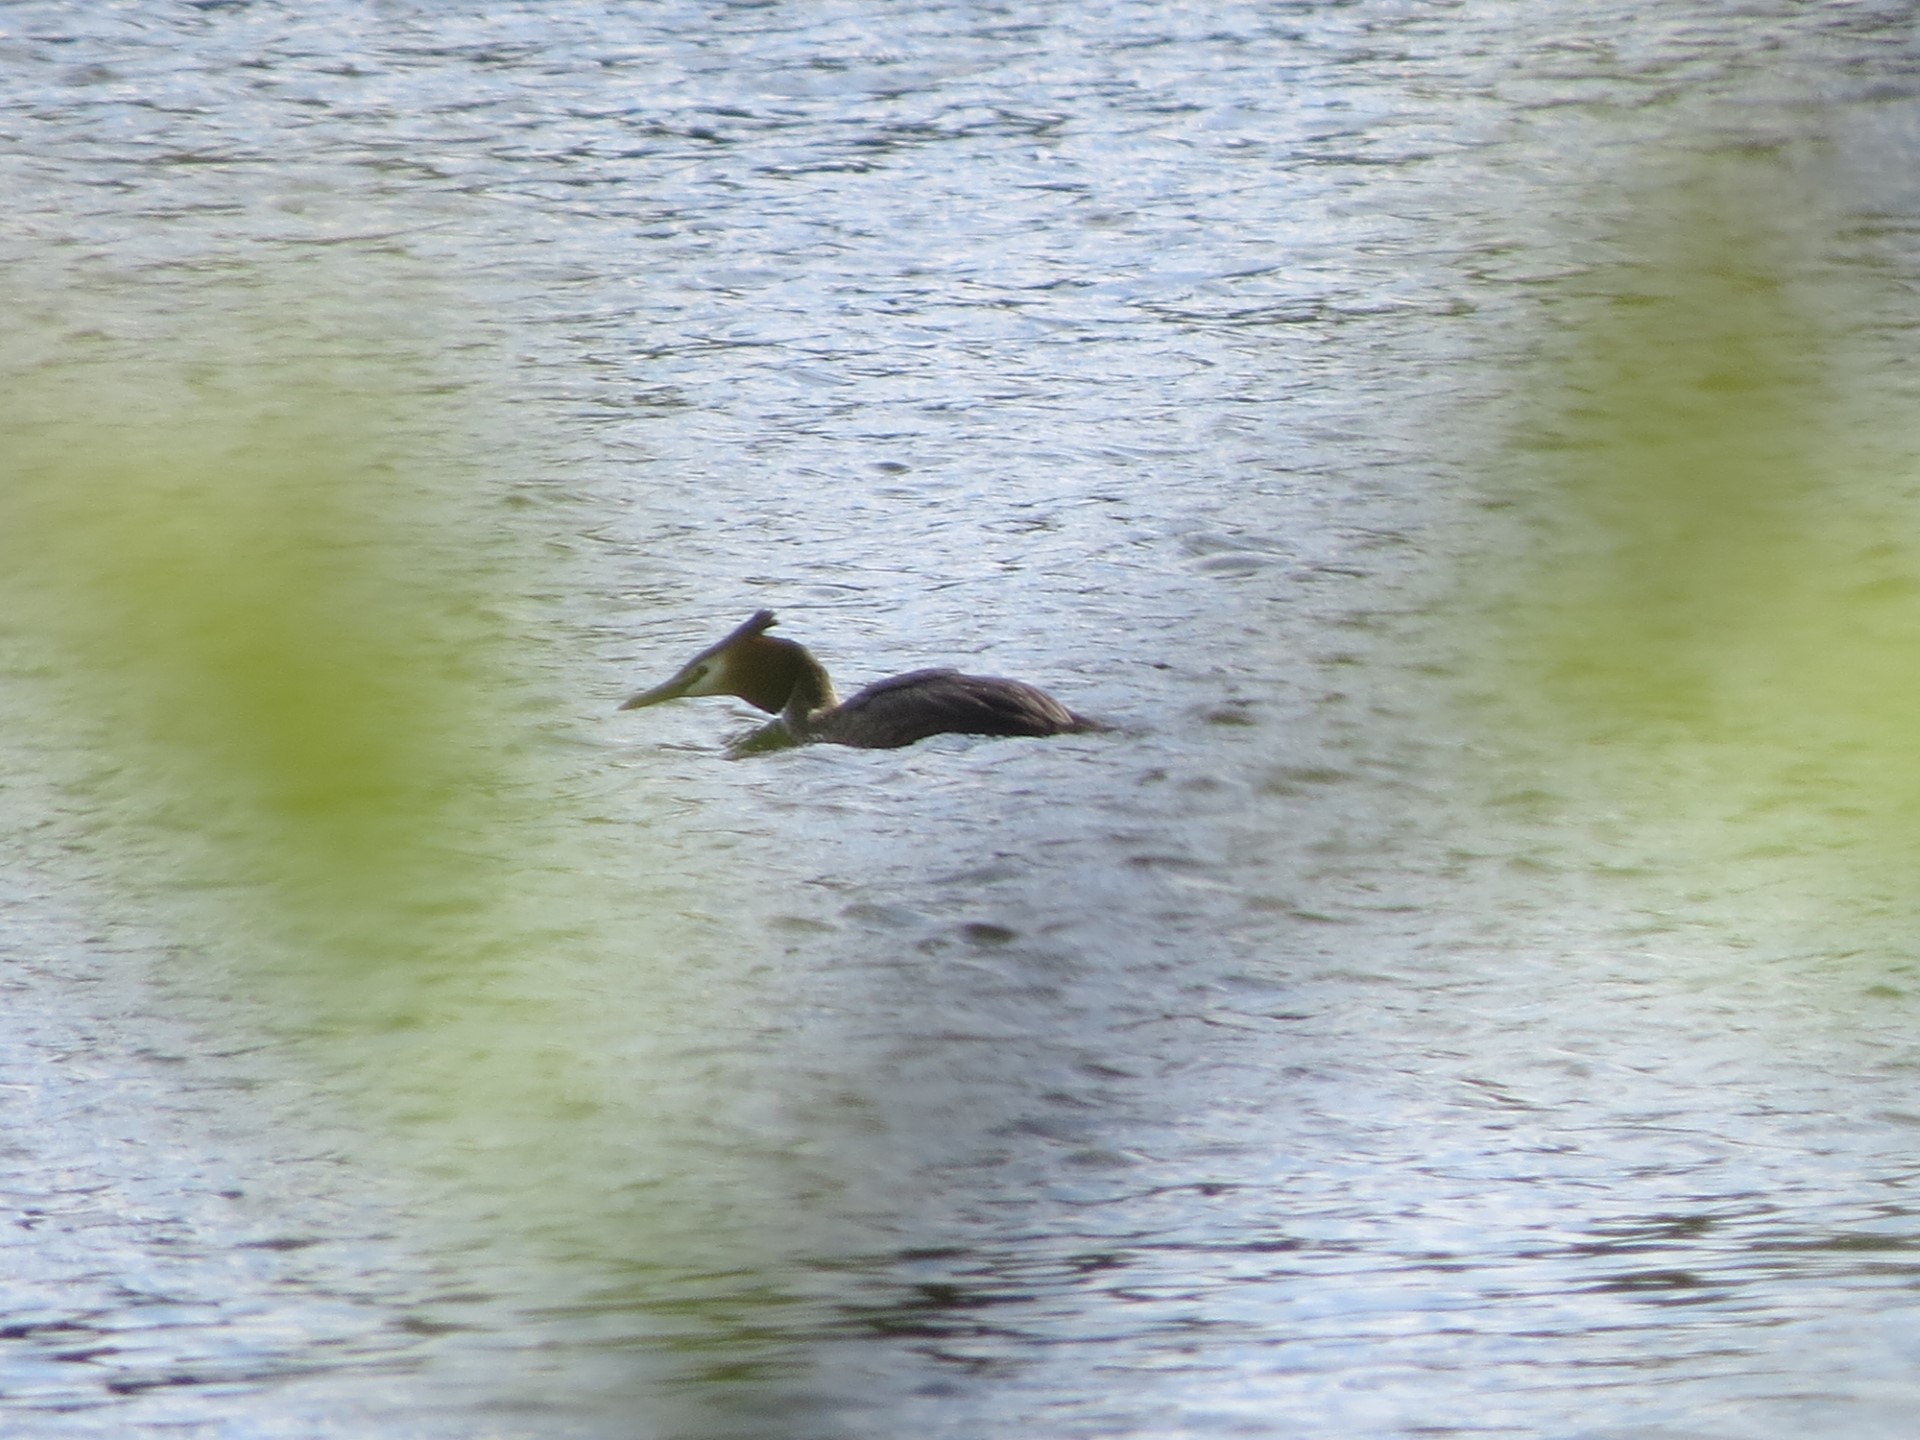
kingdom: Animalia
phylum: Chordata
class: Aves
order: Podicipediformes
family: Podicipedidae
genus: Podiceps
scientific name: Podiceps cristatus
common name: Great crested grebe
